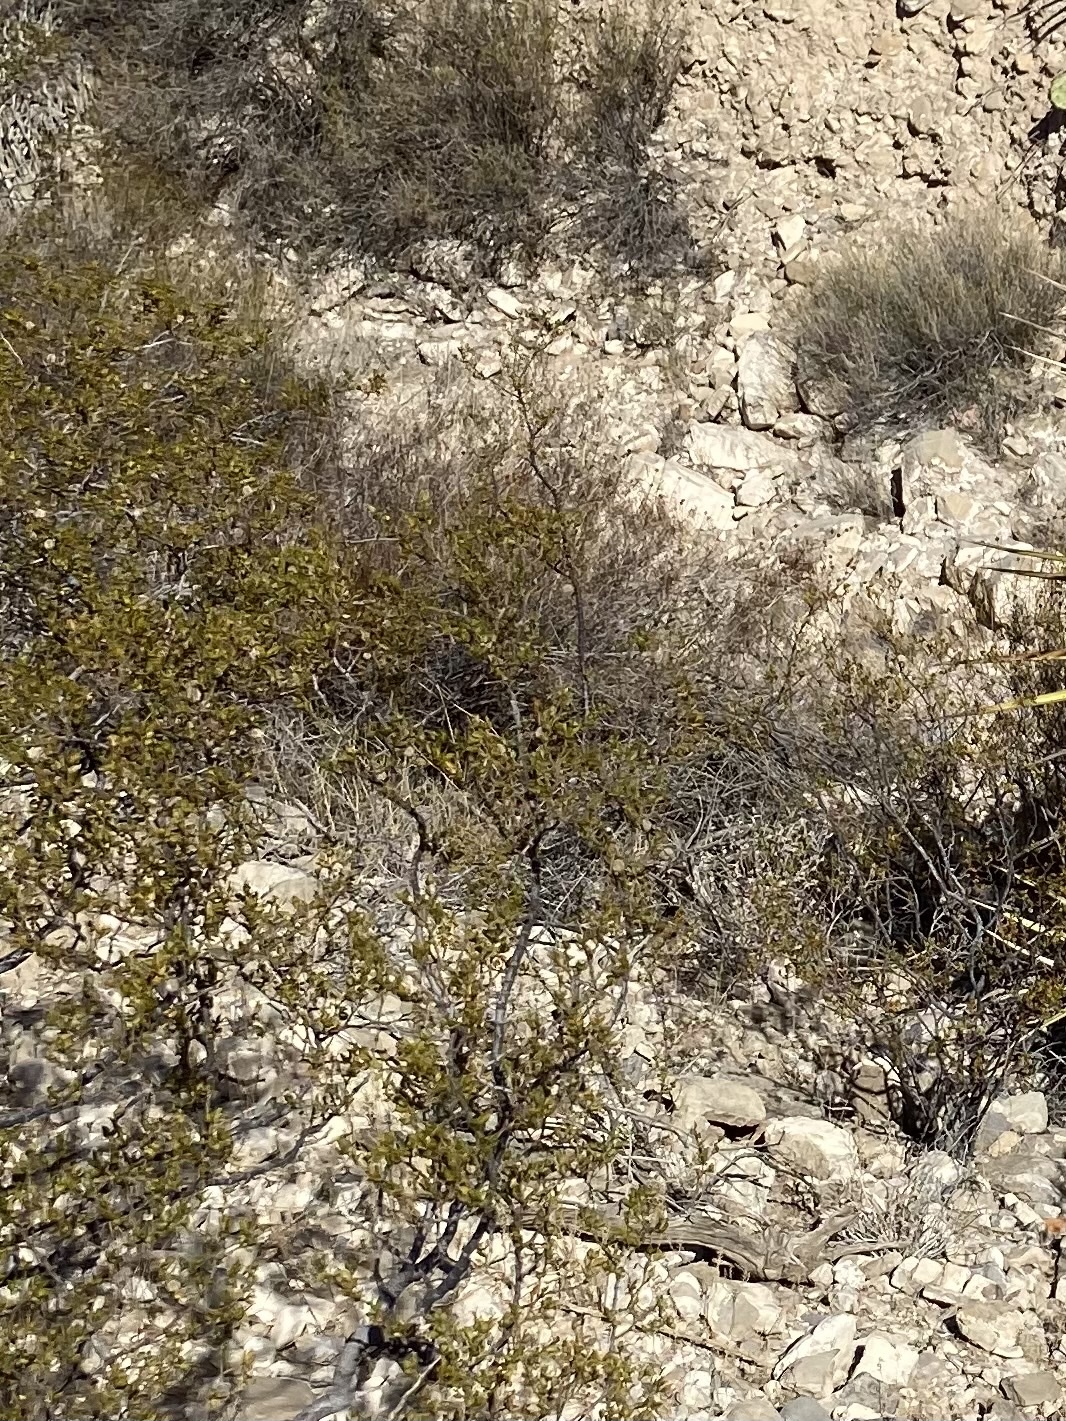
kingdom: Plantae
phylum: Tracheophyta
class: Magnoliopsida
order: Zygophyllales
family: Zygophyllaceae
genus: Larrea
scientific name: Larrea tridentata
